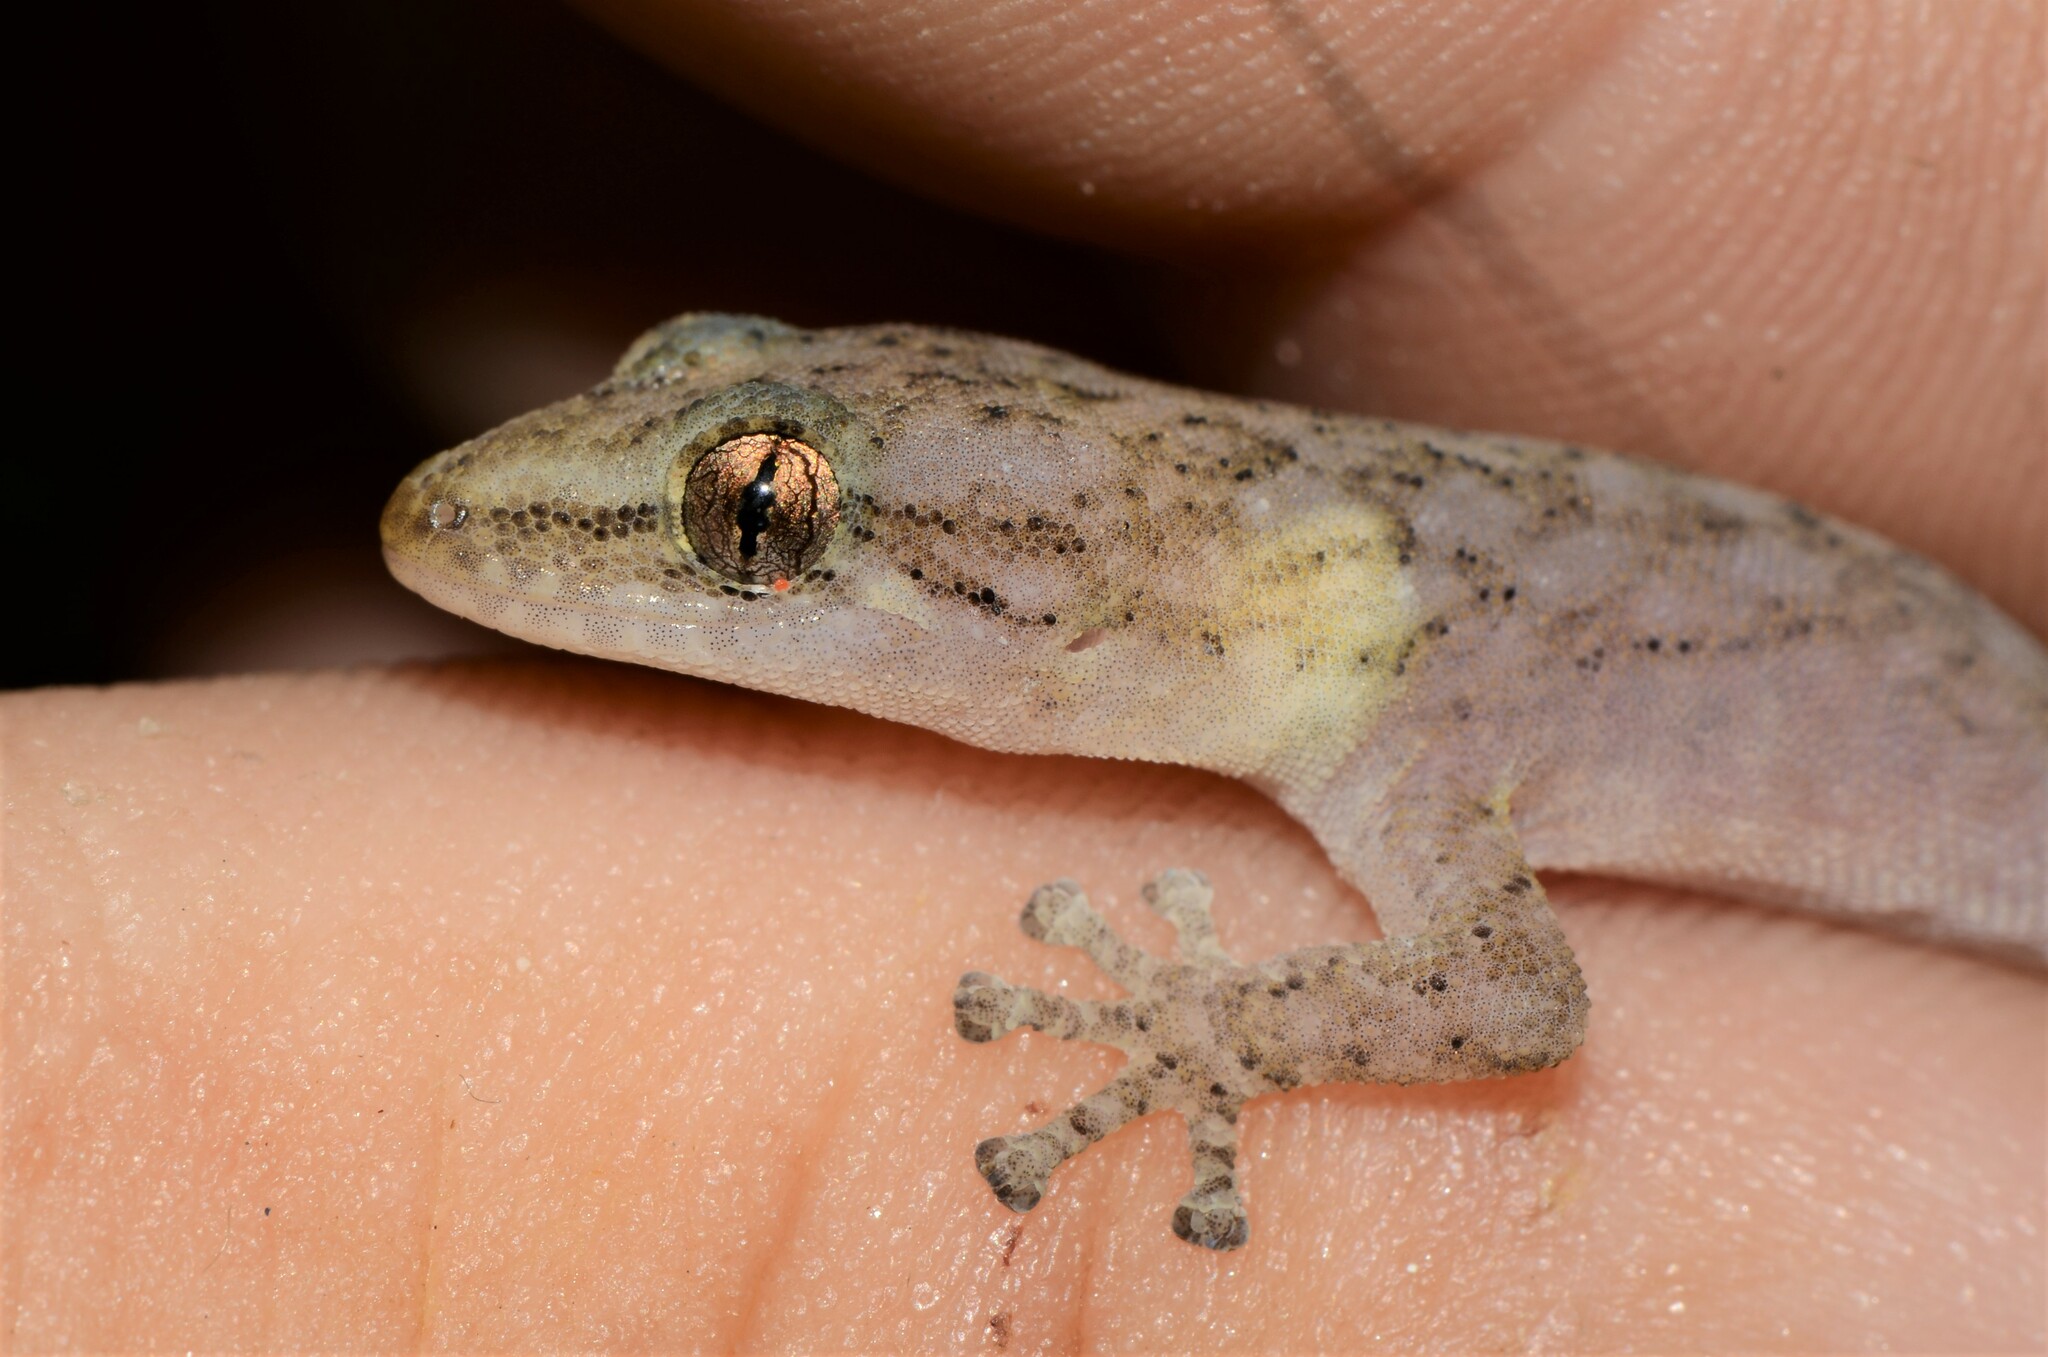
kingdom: Animalia
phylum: Chordata
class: Squamata
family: Gekkonidae
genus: Afrogecko
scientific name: Afrogecko porphyreus
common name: Marbled leaf-toed gecko
